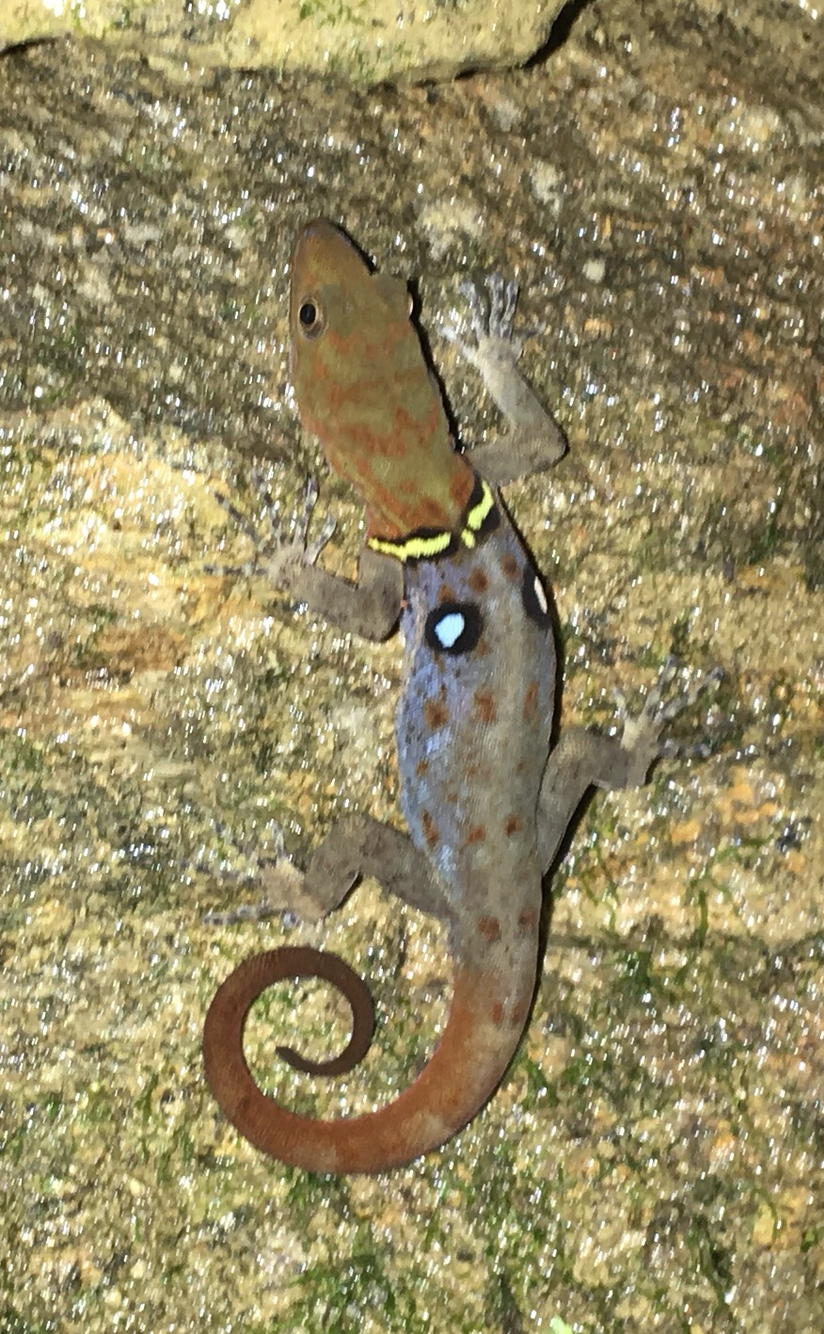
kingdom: Animalia
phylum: Chordata
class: Squamata
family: Sphaerodactylidae
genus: Gonatodes
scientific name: Gonatodes ocellatus
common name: Eyespot gecko
